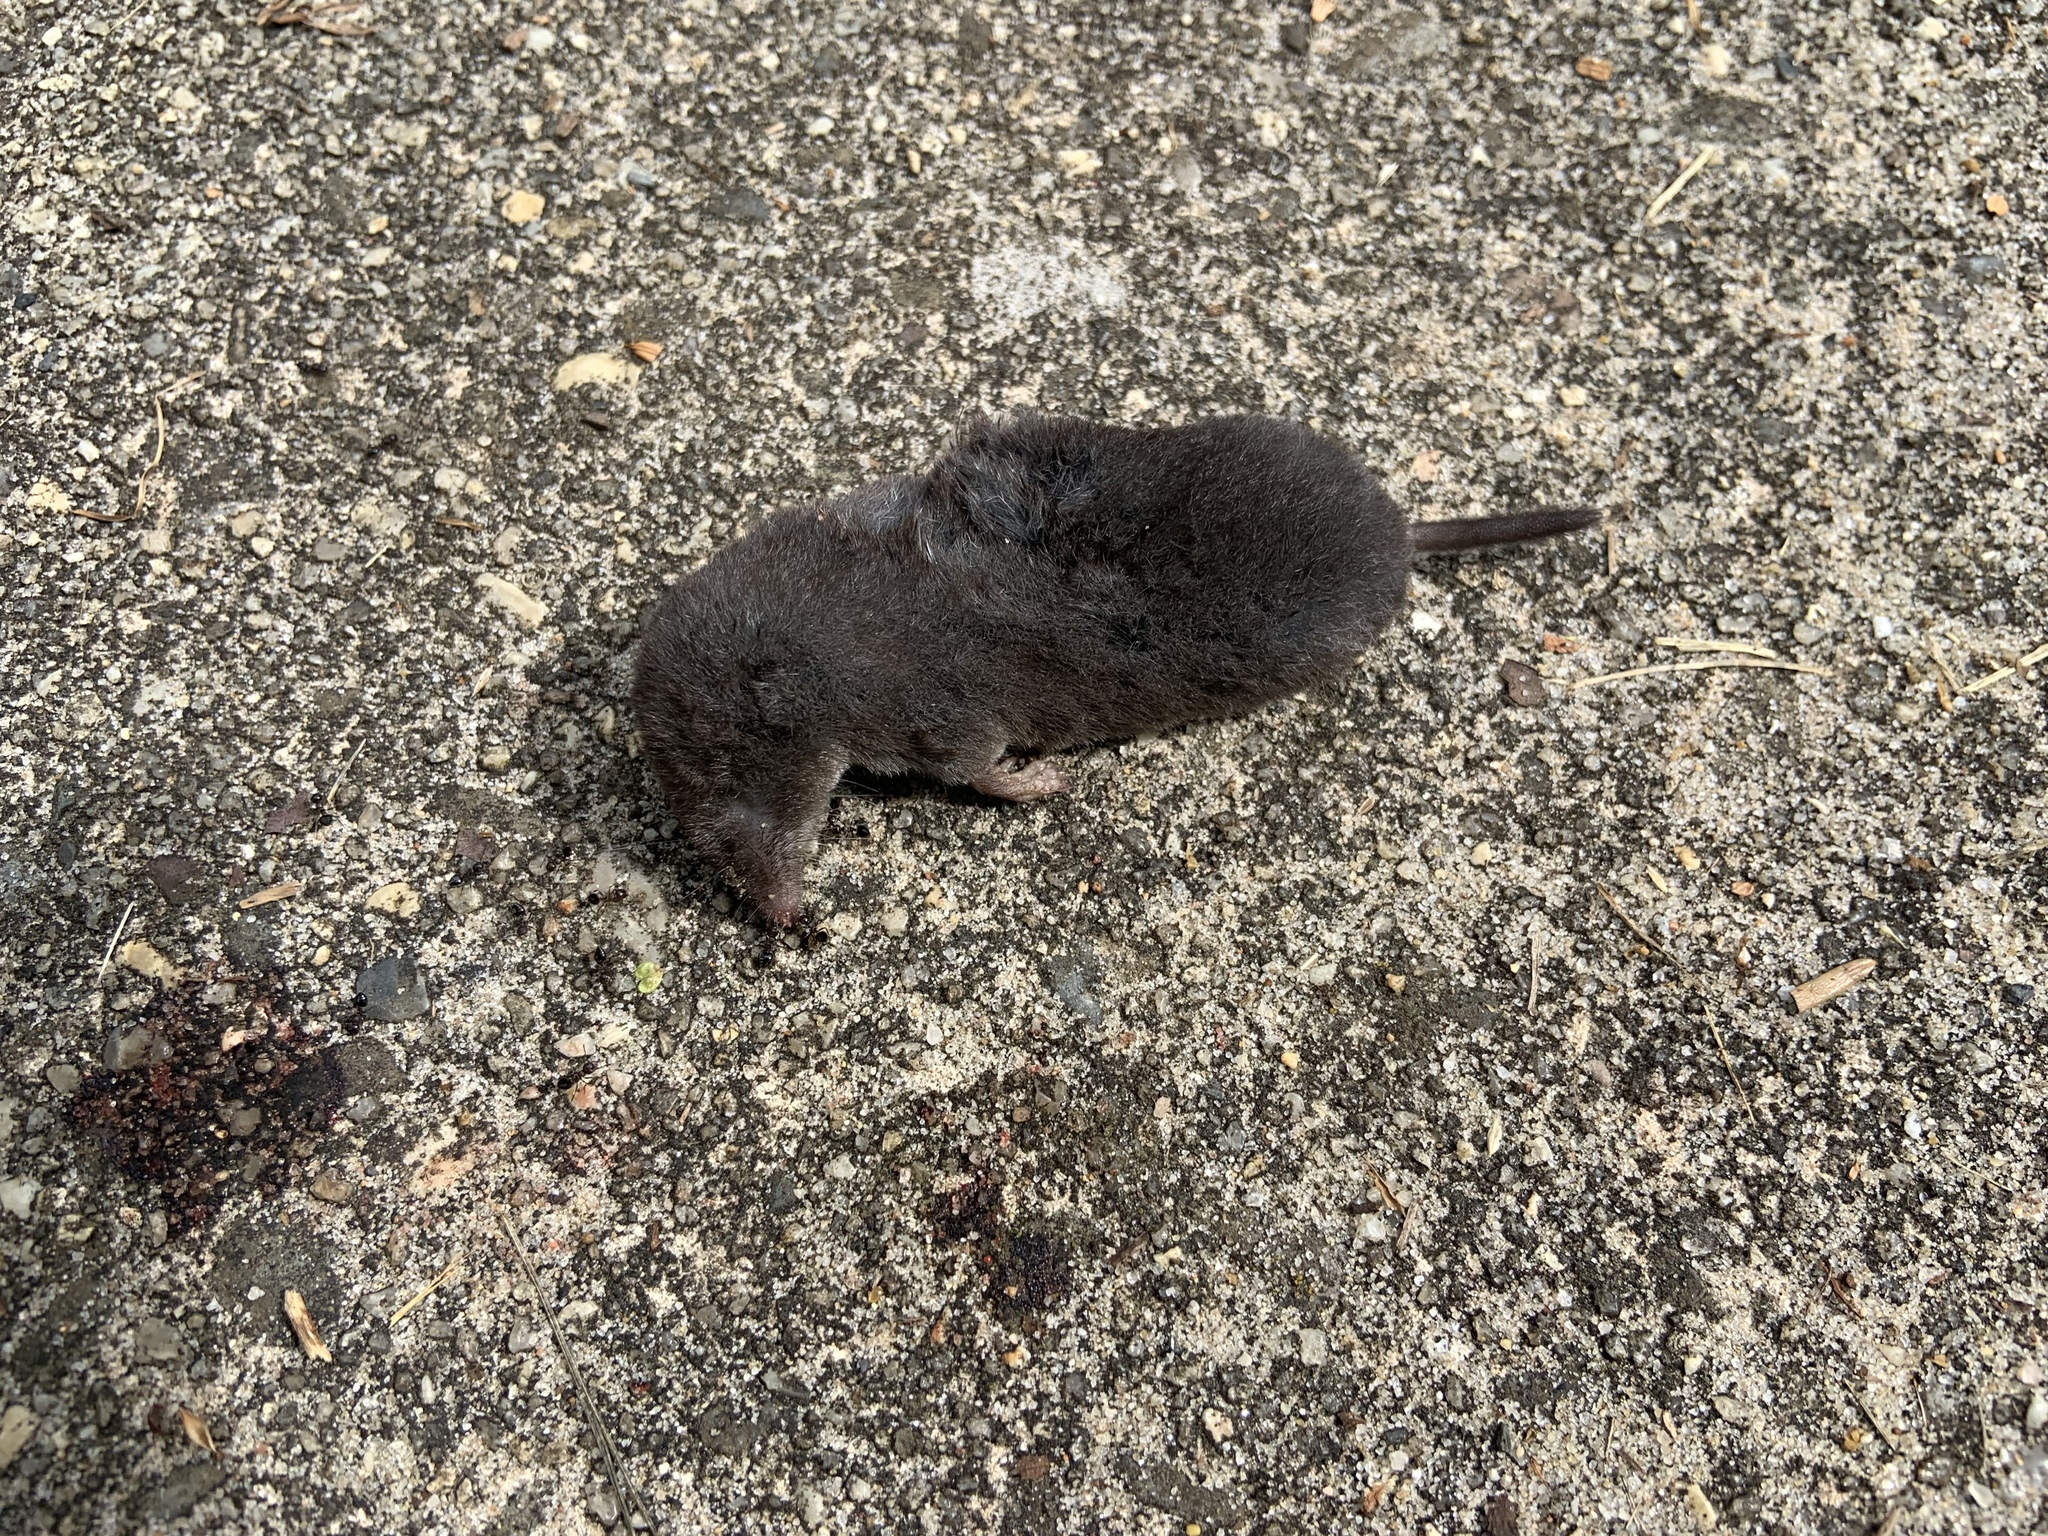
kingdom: Animalia
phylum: Chordata
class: Mammalia
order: Soricomorpha
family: Soricidae
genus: Blarina
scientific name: Blarina brevicauda
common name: Northern short-tailed shrew
